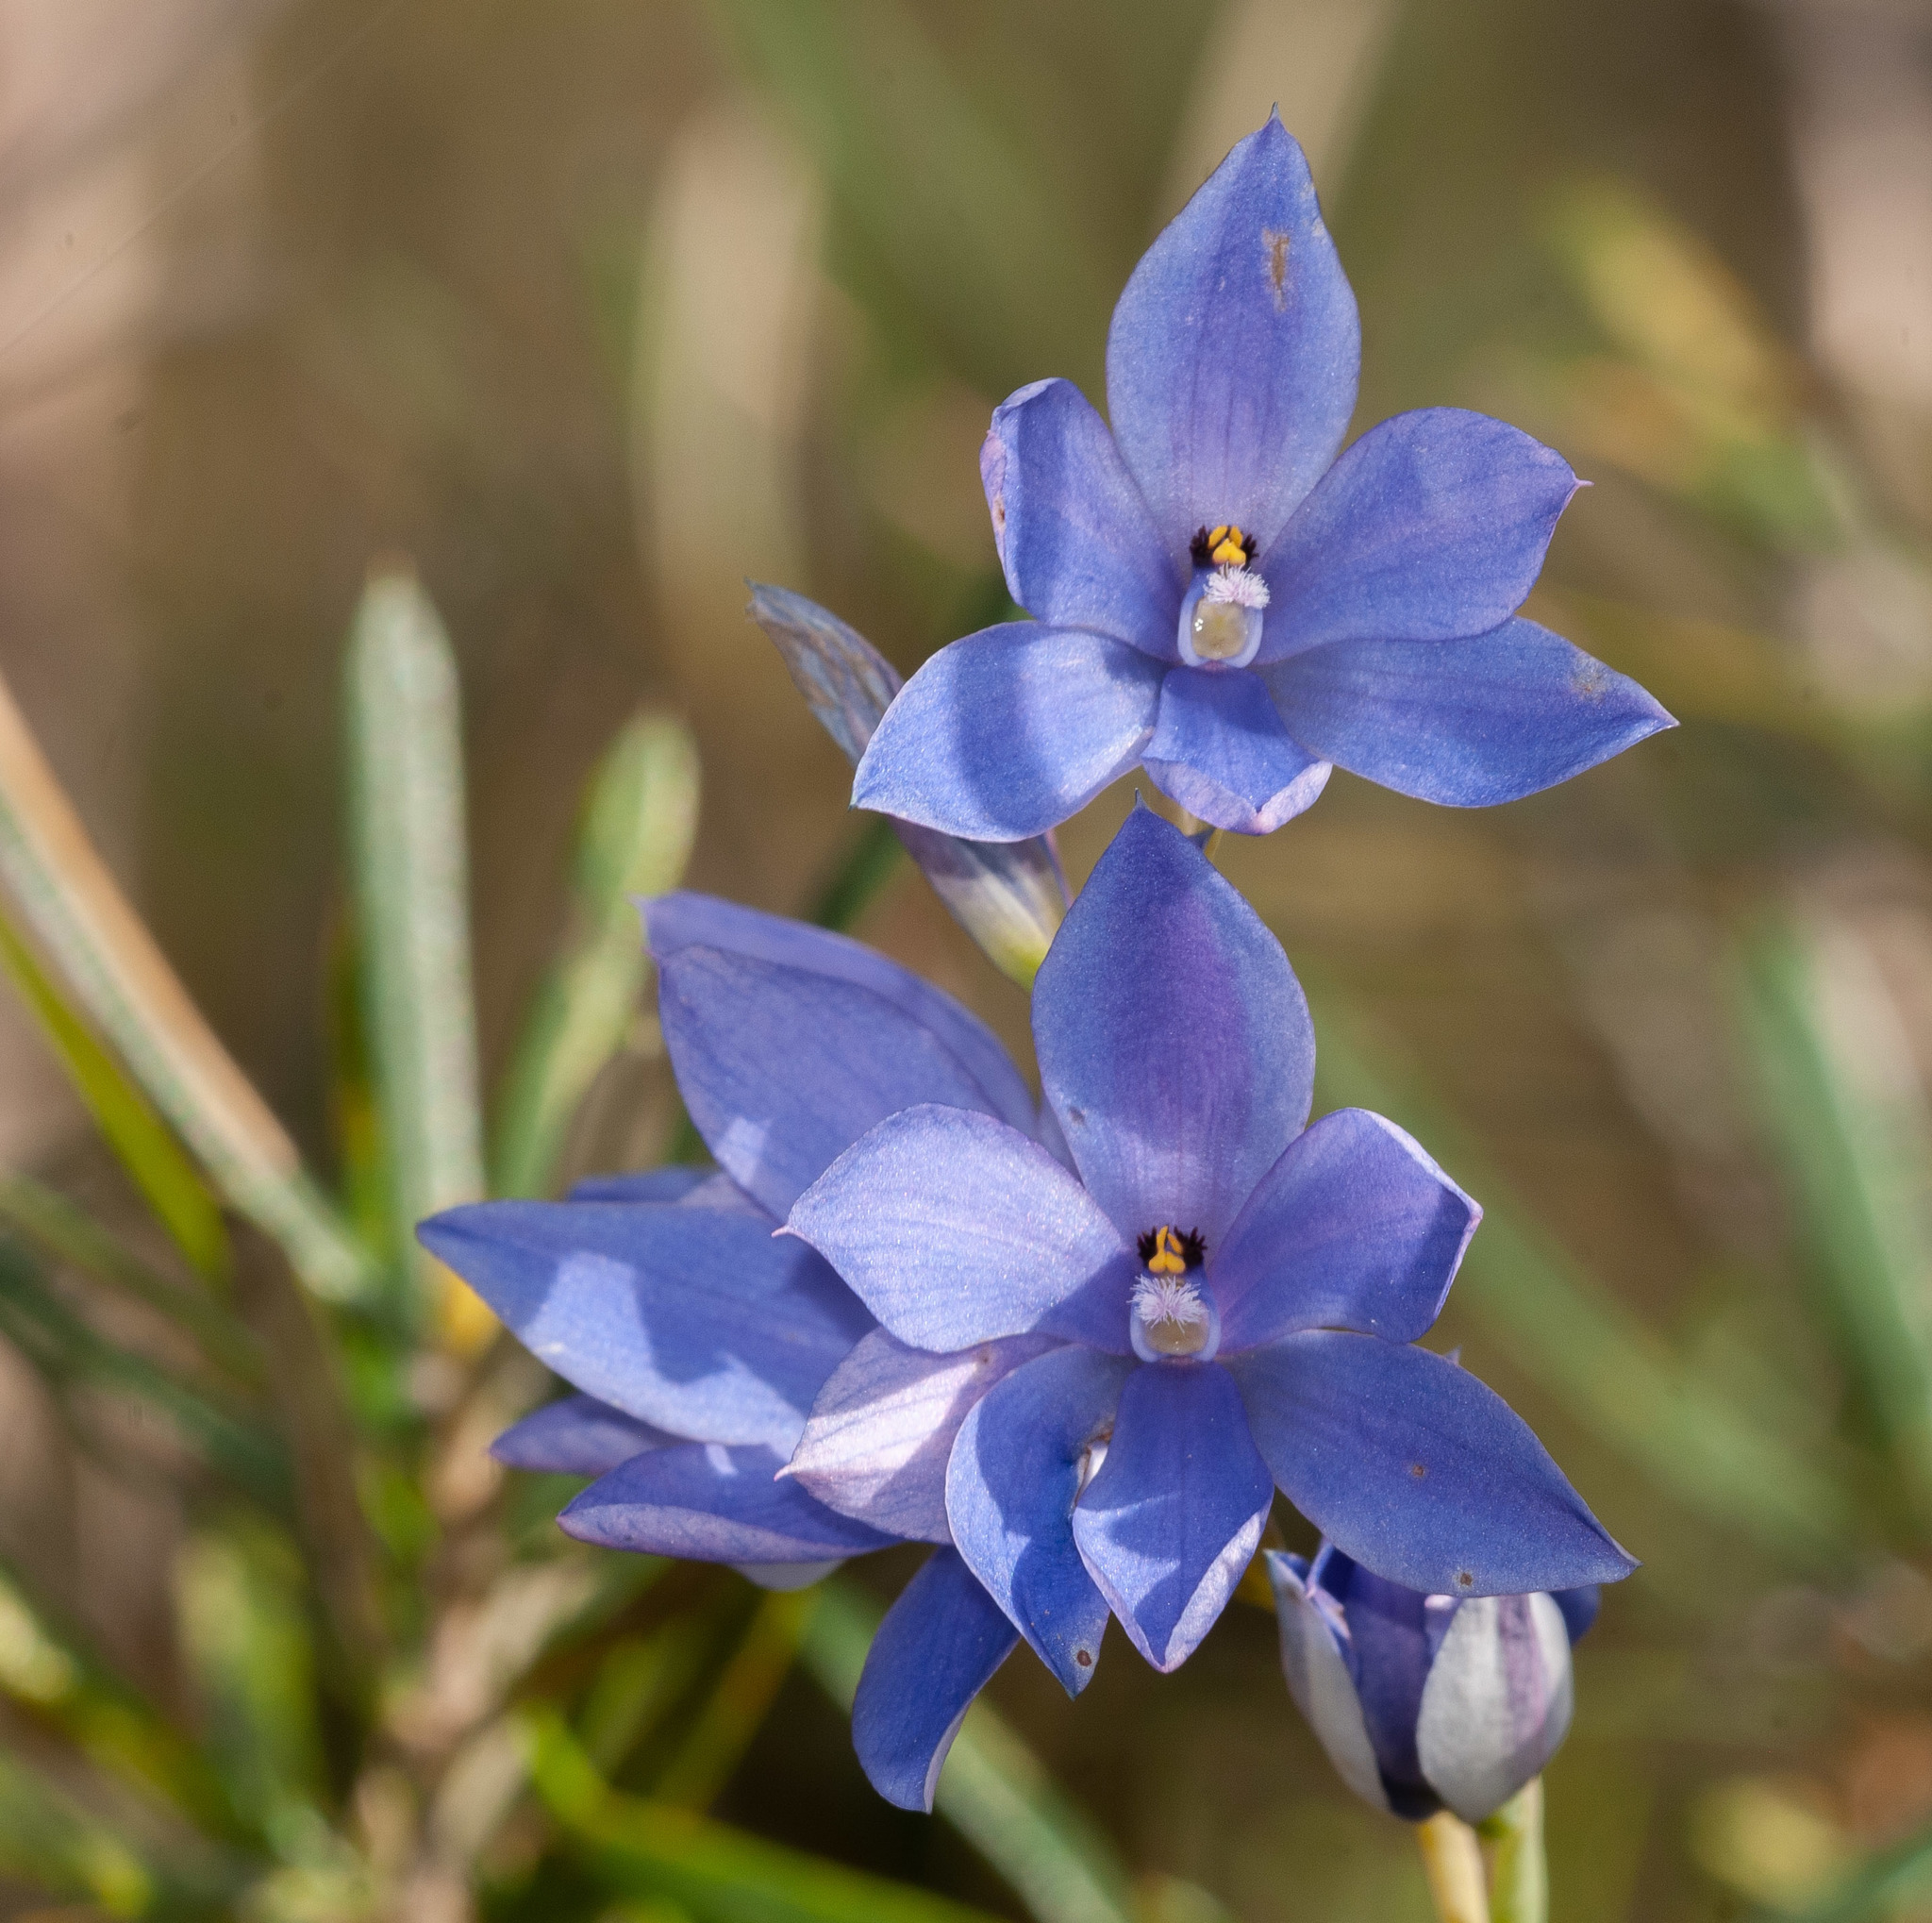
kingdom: Plantae
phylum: Tracheophyta
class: Liliopsida
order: Asparagales
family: Orchidaceae
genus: Thelymitra
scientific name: Thelymitra ixioides
